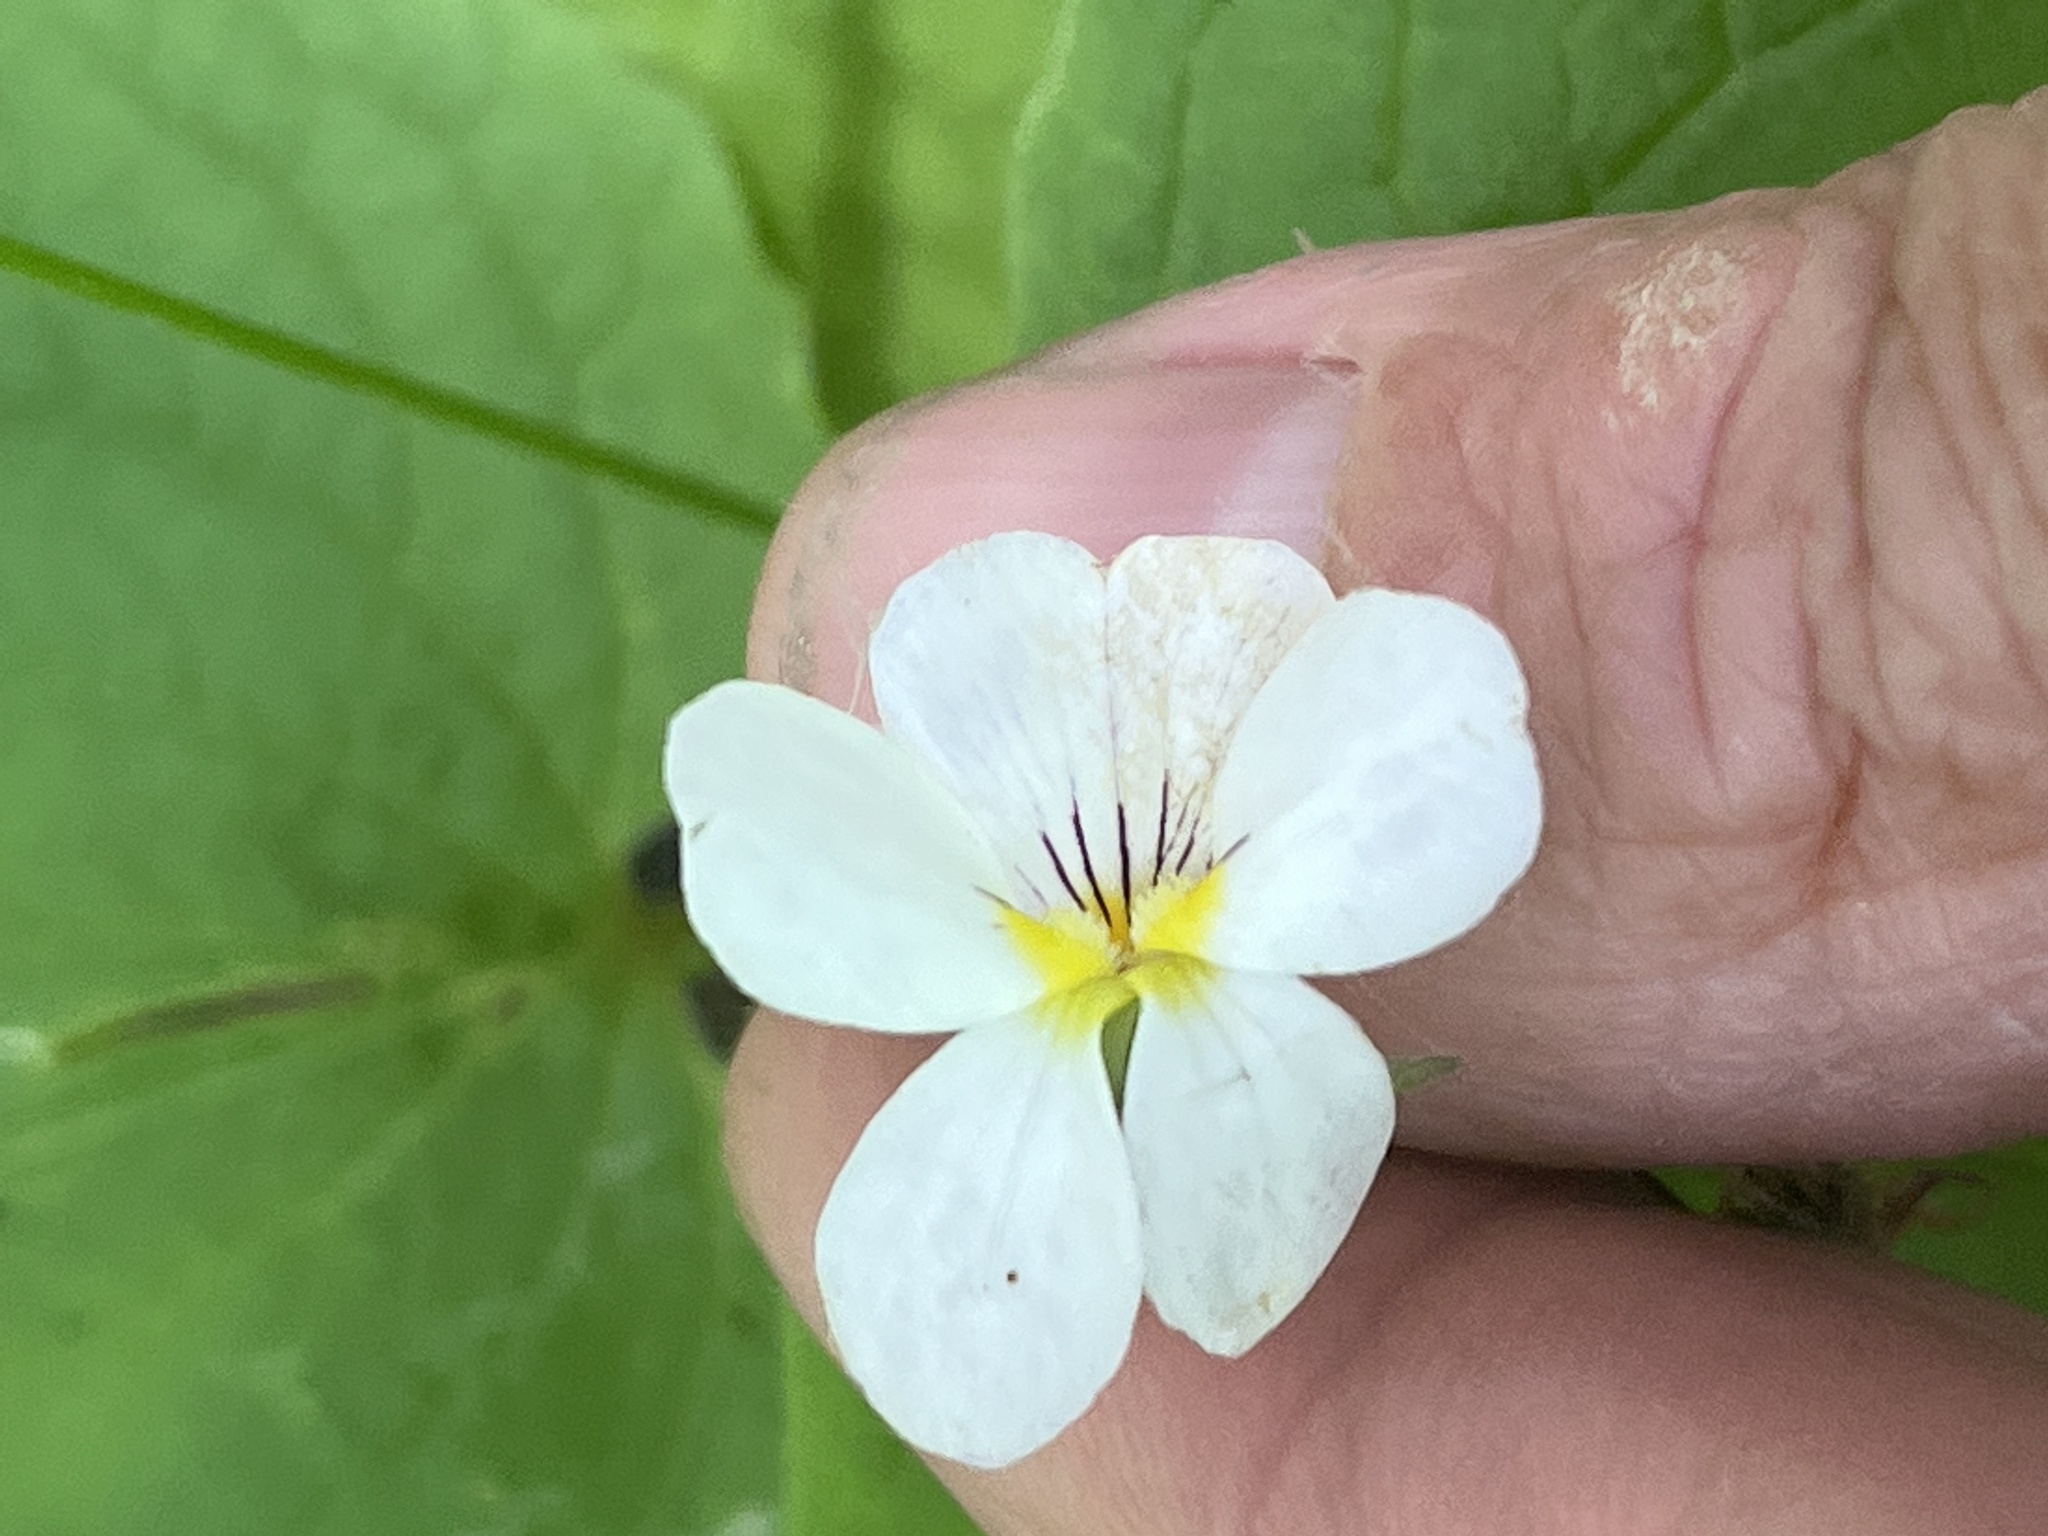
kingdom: Plantae
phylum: Tracheophyta
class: Magnoliopsida
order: Malpighiales
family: Violaceae
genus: Viola
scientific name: Viola canadensis
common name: Canada violet
